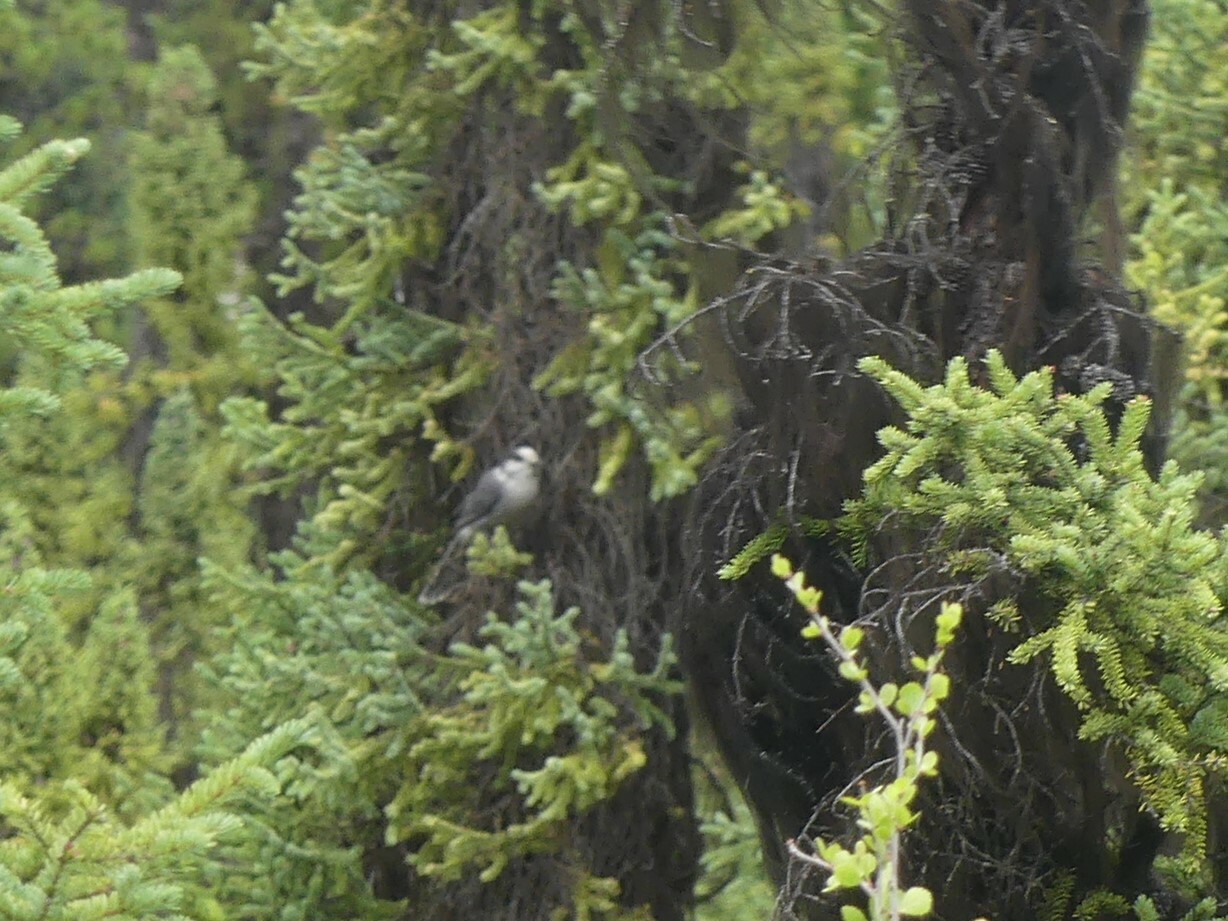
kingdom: Animalia
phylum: Chordata
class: Aves
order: Passeriformes
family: Corvidae
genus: Perisoreus
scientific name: Perisoreus canadensis
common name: Gray jay
